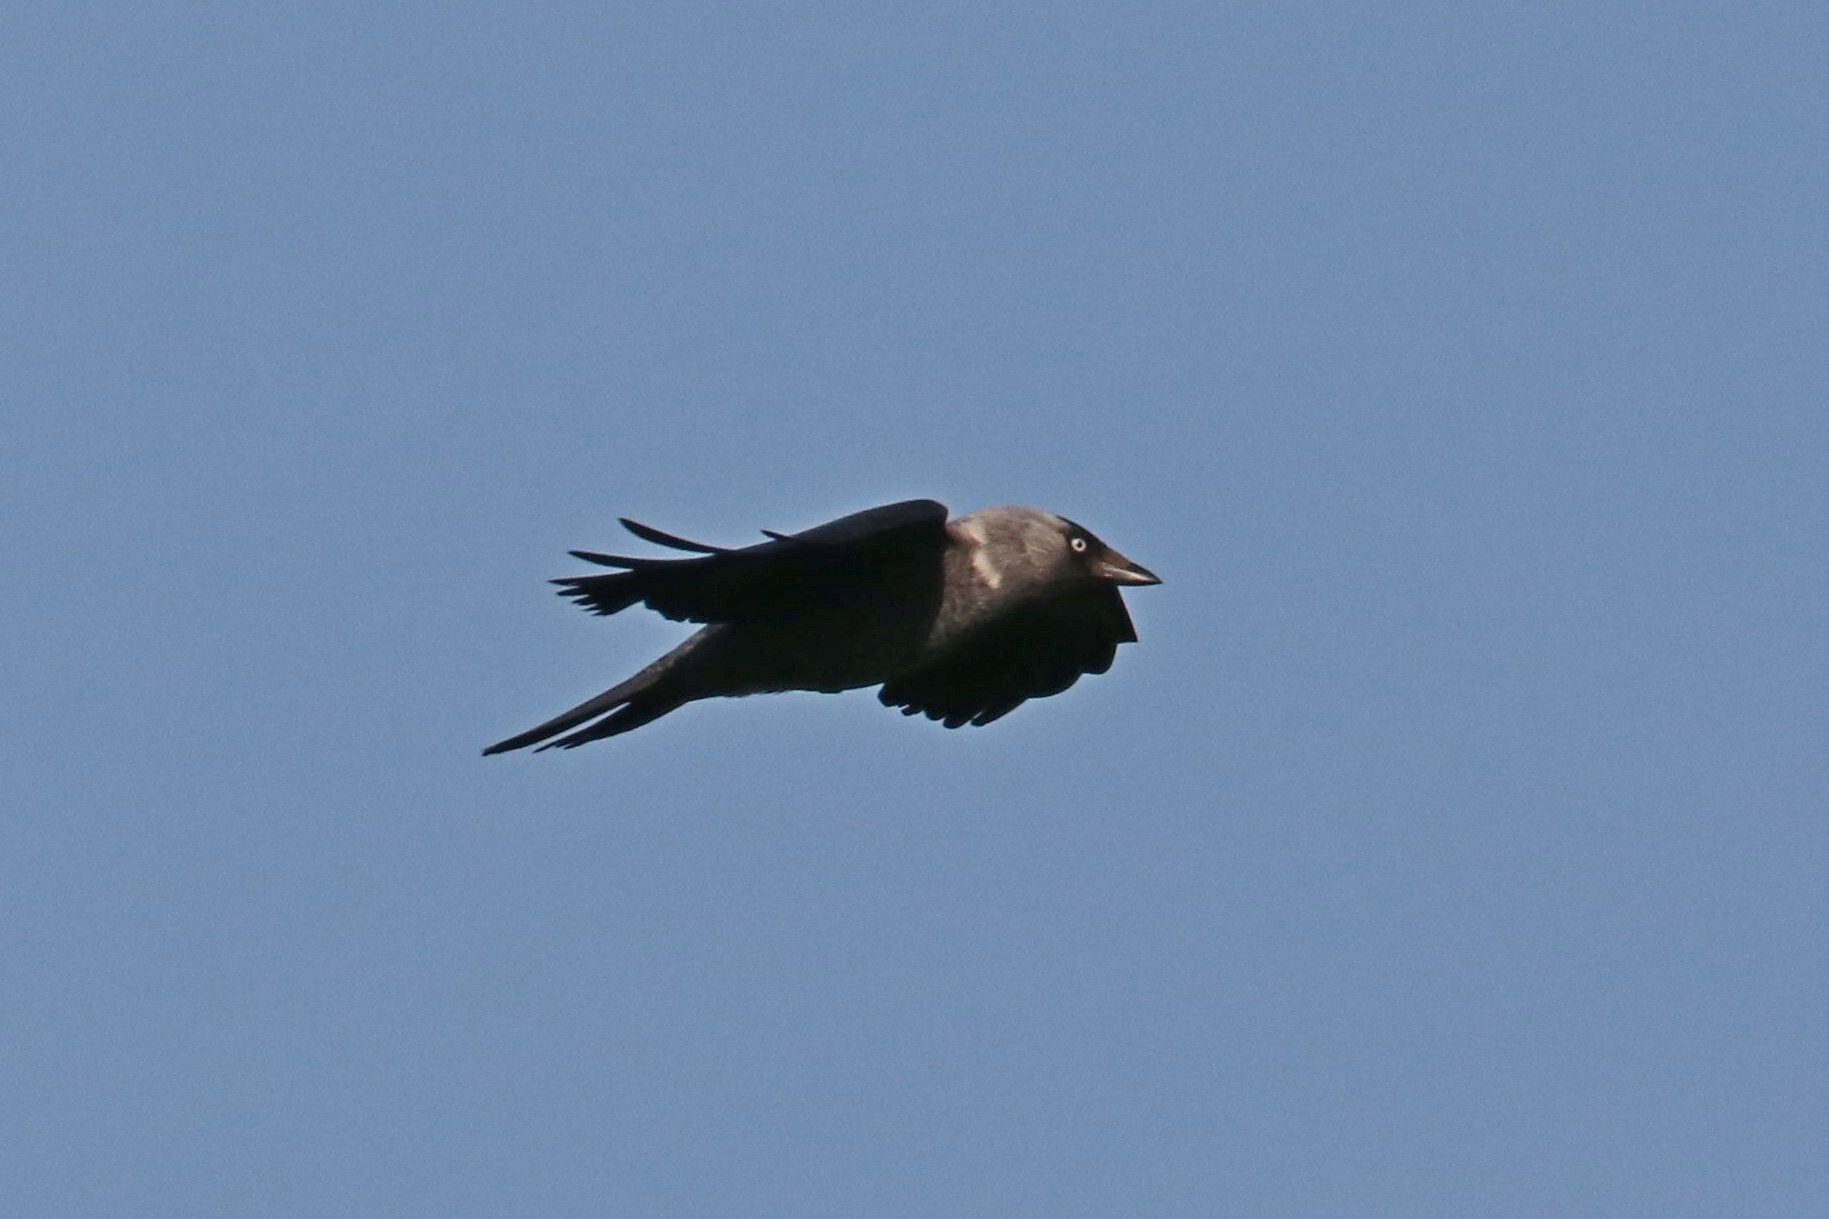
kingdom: Animalia
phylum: Chordata
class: Aves
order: Passeriformes
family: Corvidae
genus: Coloeus
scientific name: Coloeus monedula
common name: Western jackdaw
